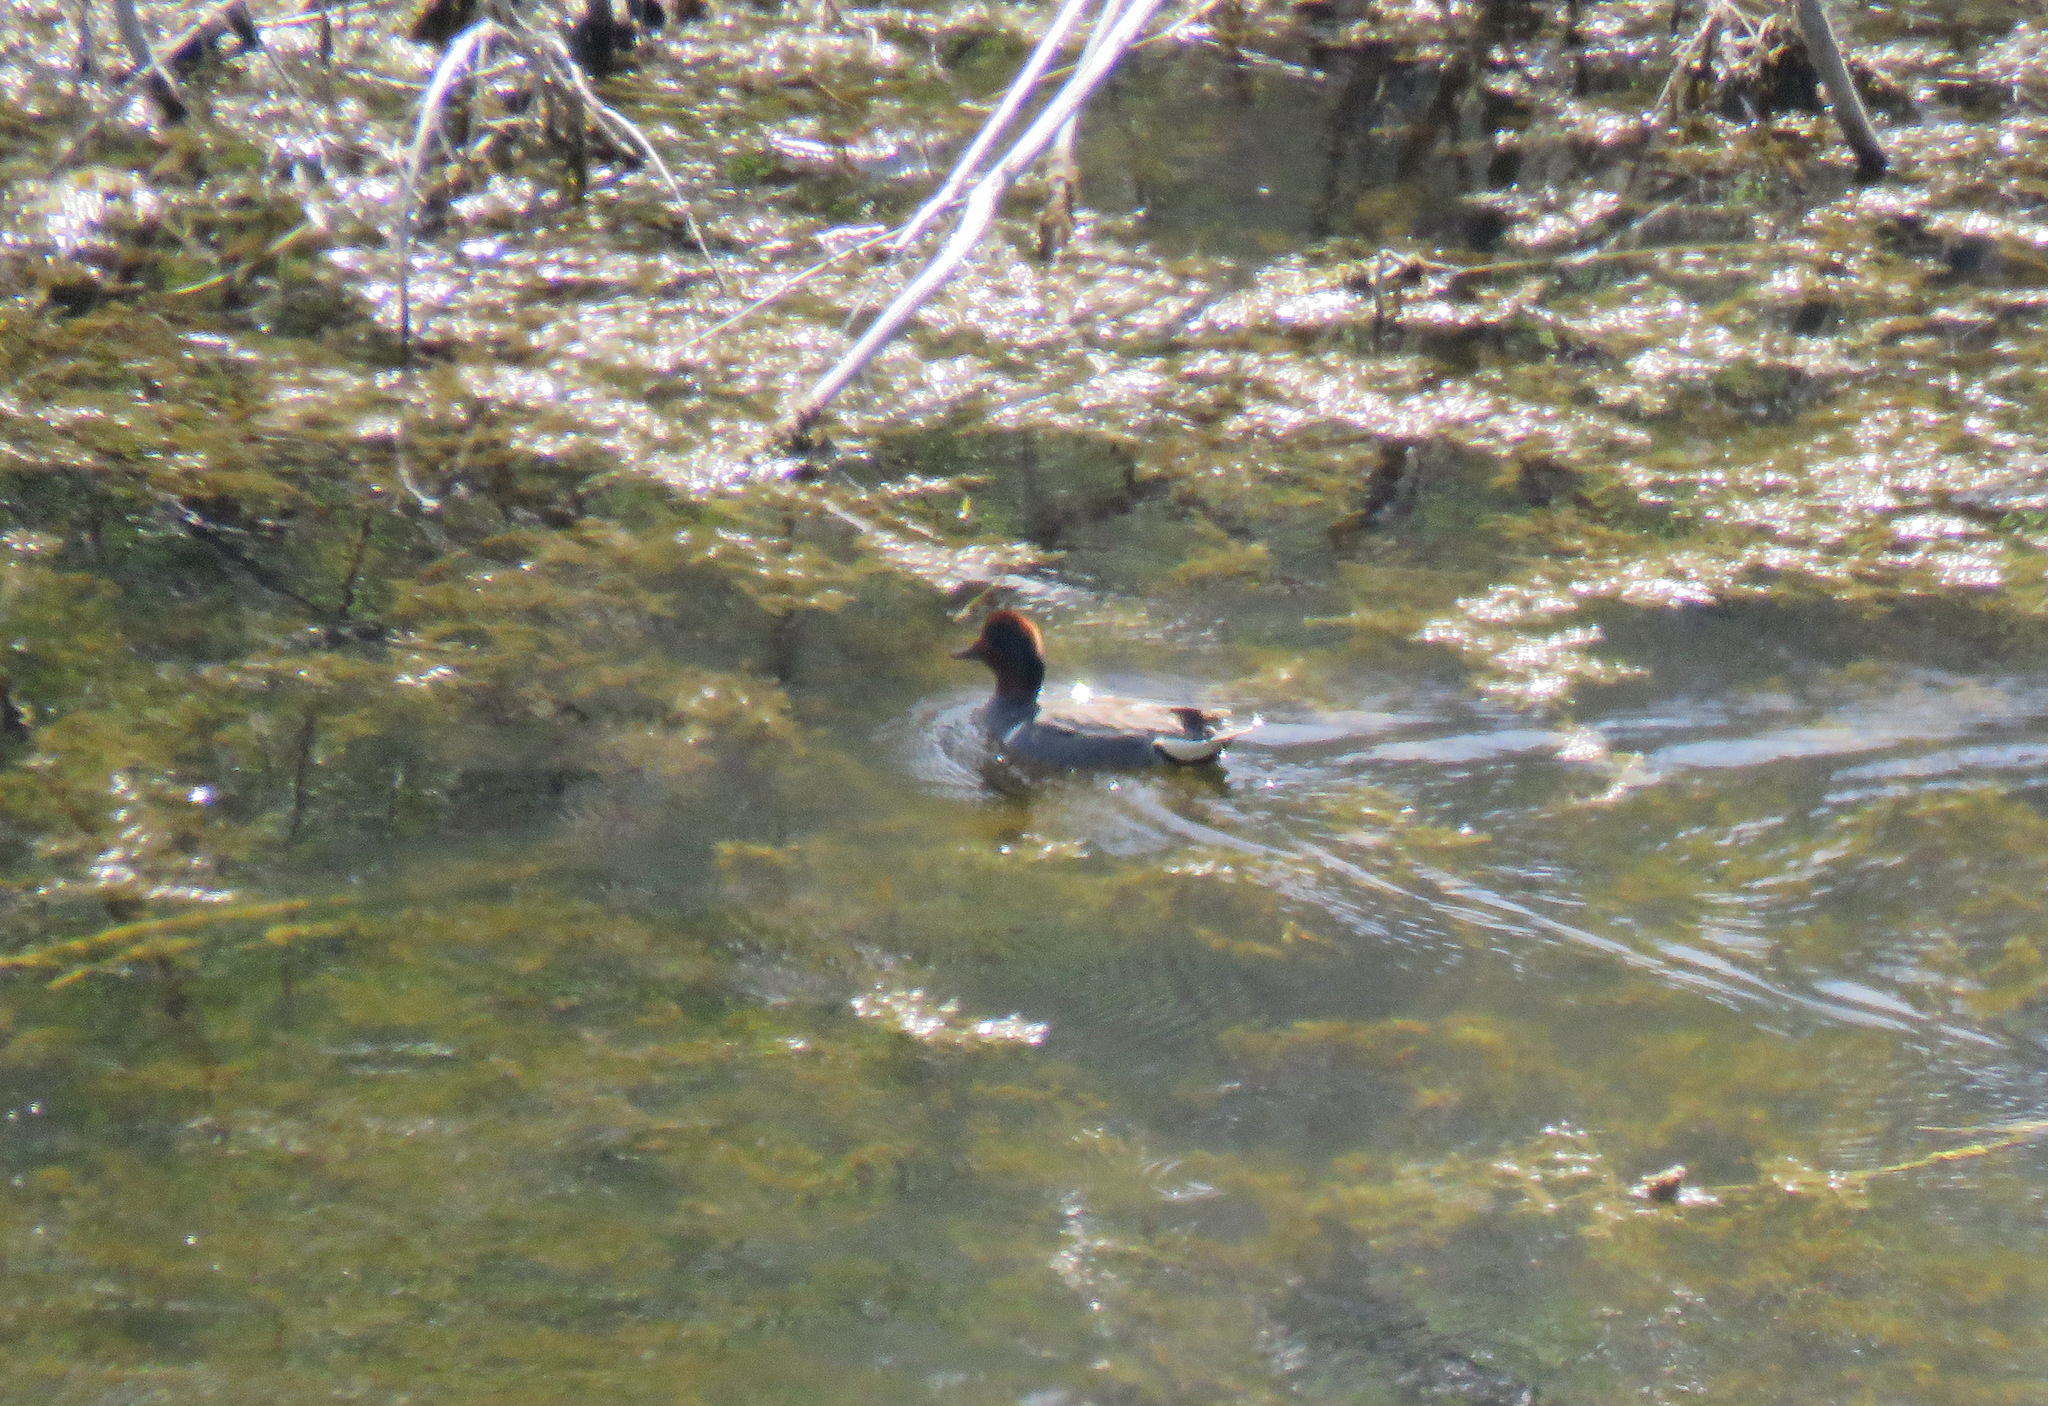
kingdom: Animalia
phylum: Chordata
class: Aves
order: Anseriformes
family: Anatidae
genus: Anas
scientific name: Anas crecca
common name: Eurasian teal
